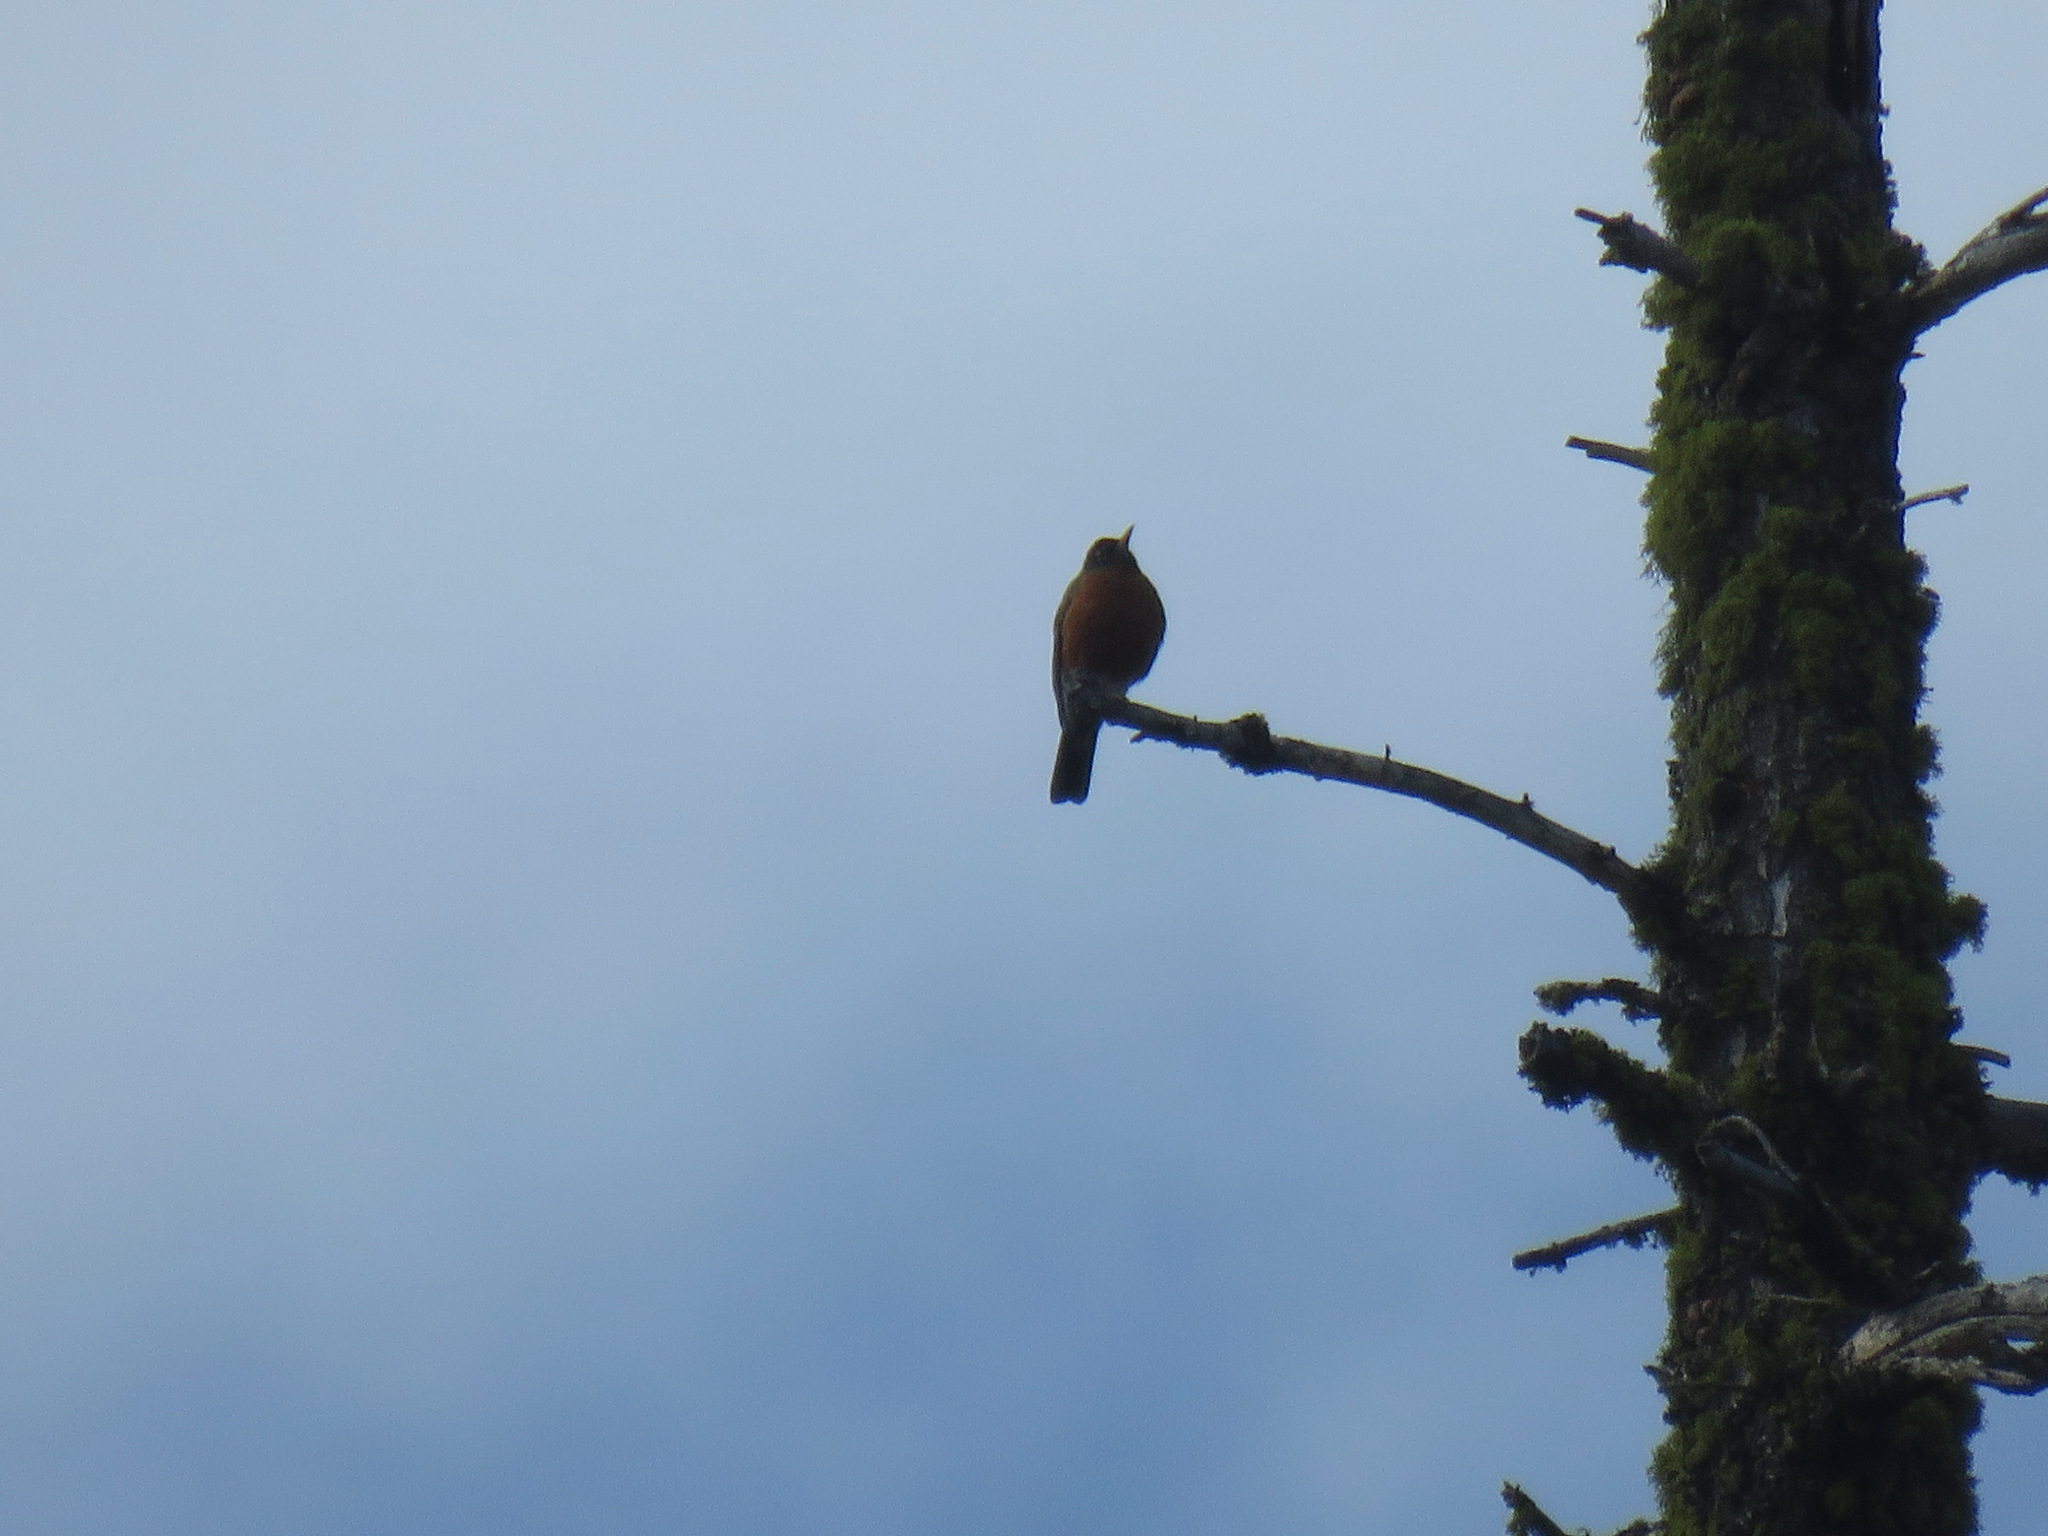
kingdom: Animalia
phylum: Chordata
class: Aves
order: Passeriformes
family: Turdidae
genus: Turdus
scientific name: Turdus migratorius
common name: American robin
